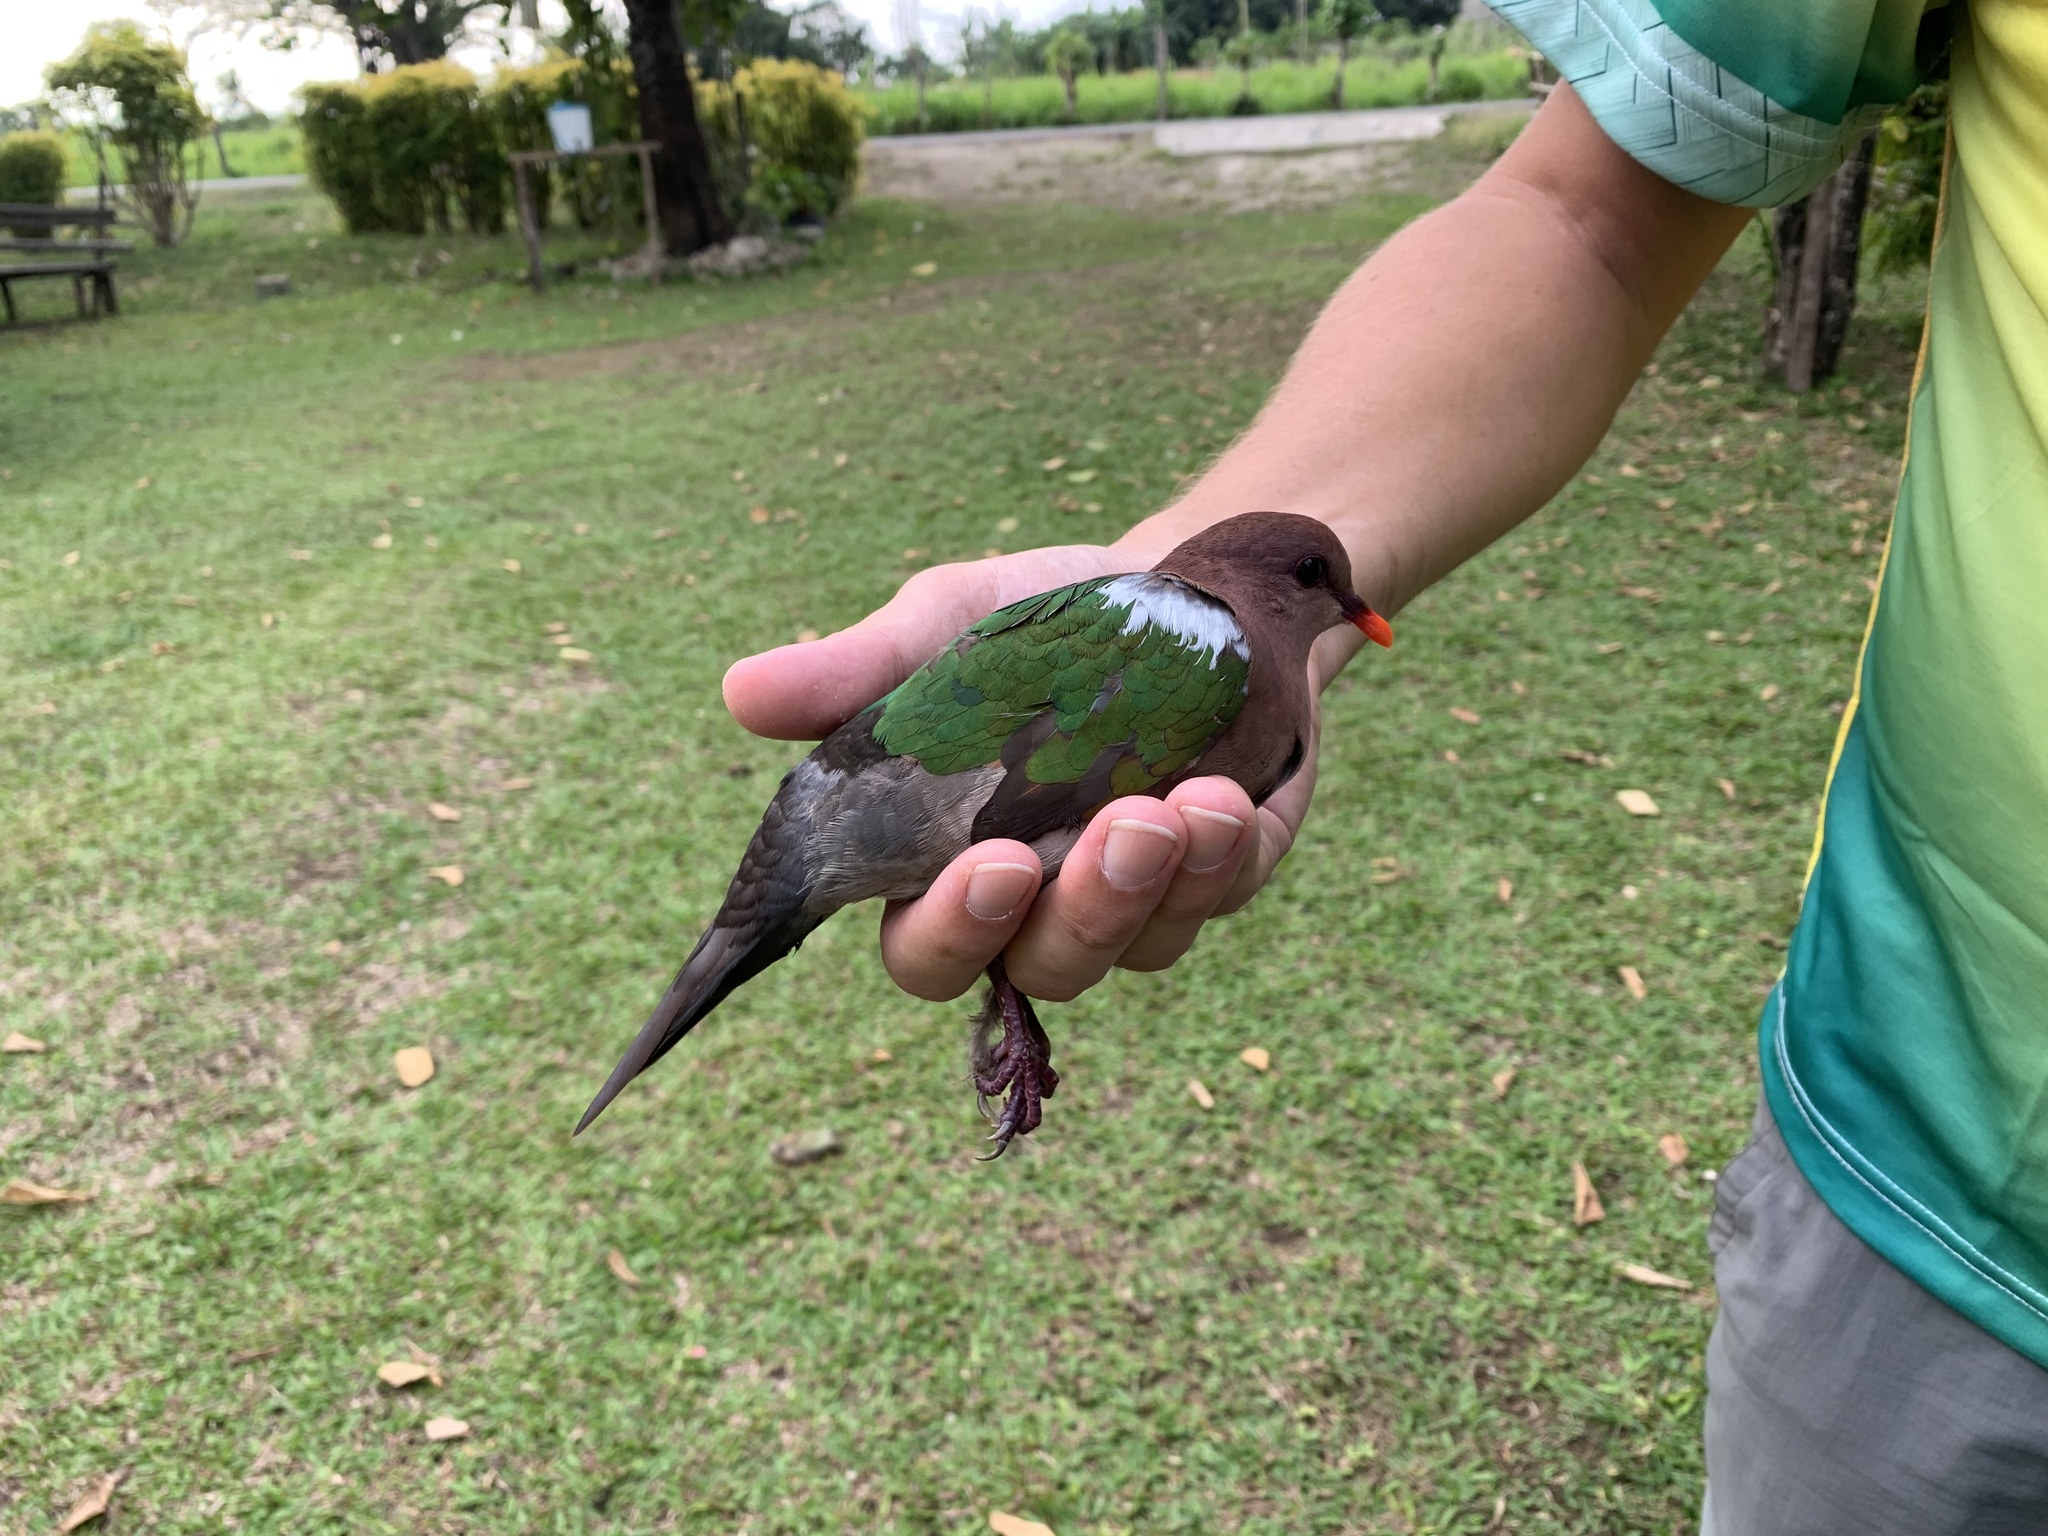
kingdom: Animalia
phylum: Chordata
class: Aves
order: Columbiformes
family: Columbidae
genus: Chalcophaps
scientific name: Chalcophaps longirostris
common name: Pacific emerald dove
